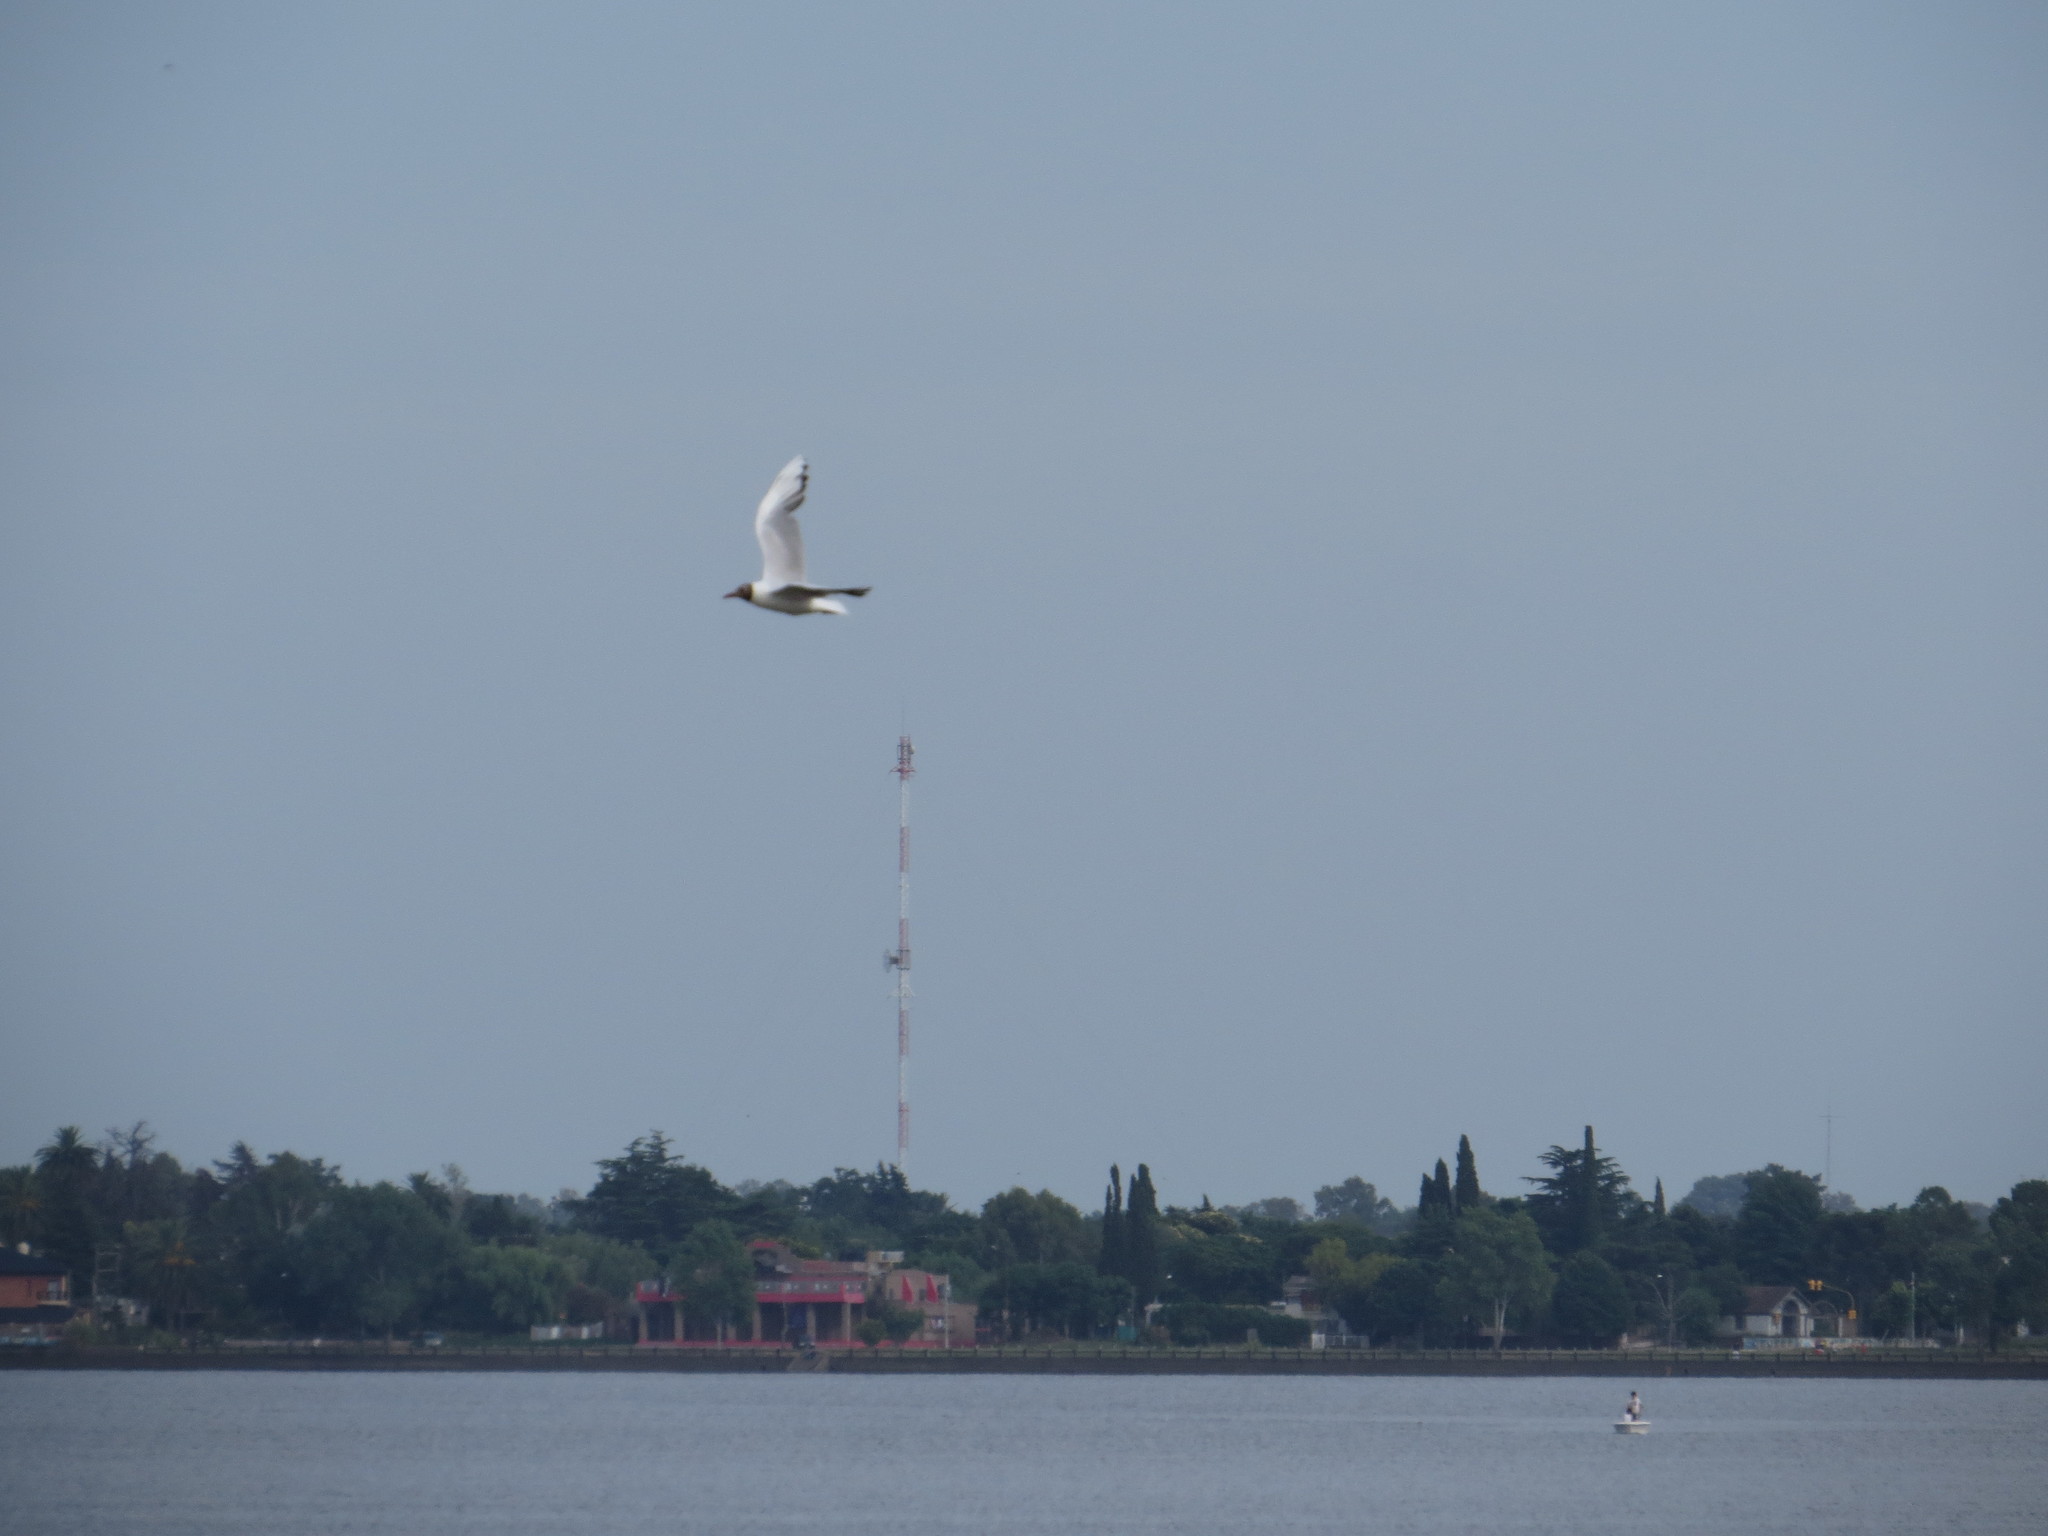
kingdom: Animalia
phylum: Chordata
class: Aves
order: Charadriiformes
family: Laridae
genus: Chroicocephalus
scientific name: Chroicocephalus maculipennis
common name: Brown-hooded gull
